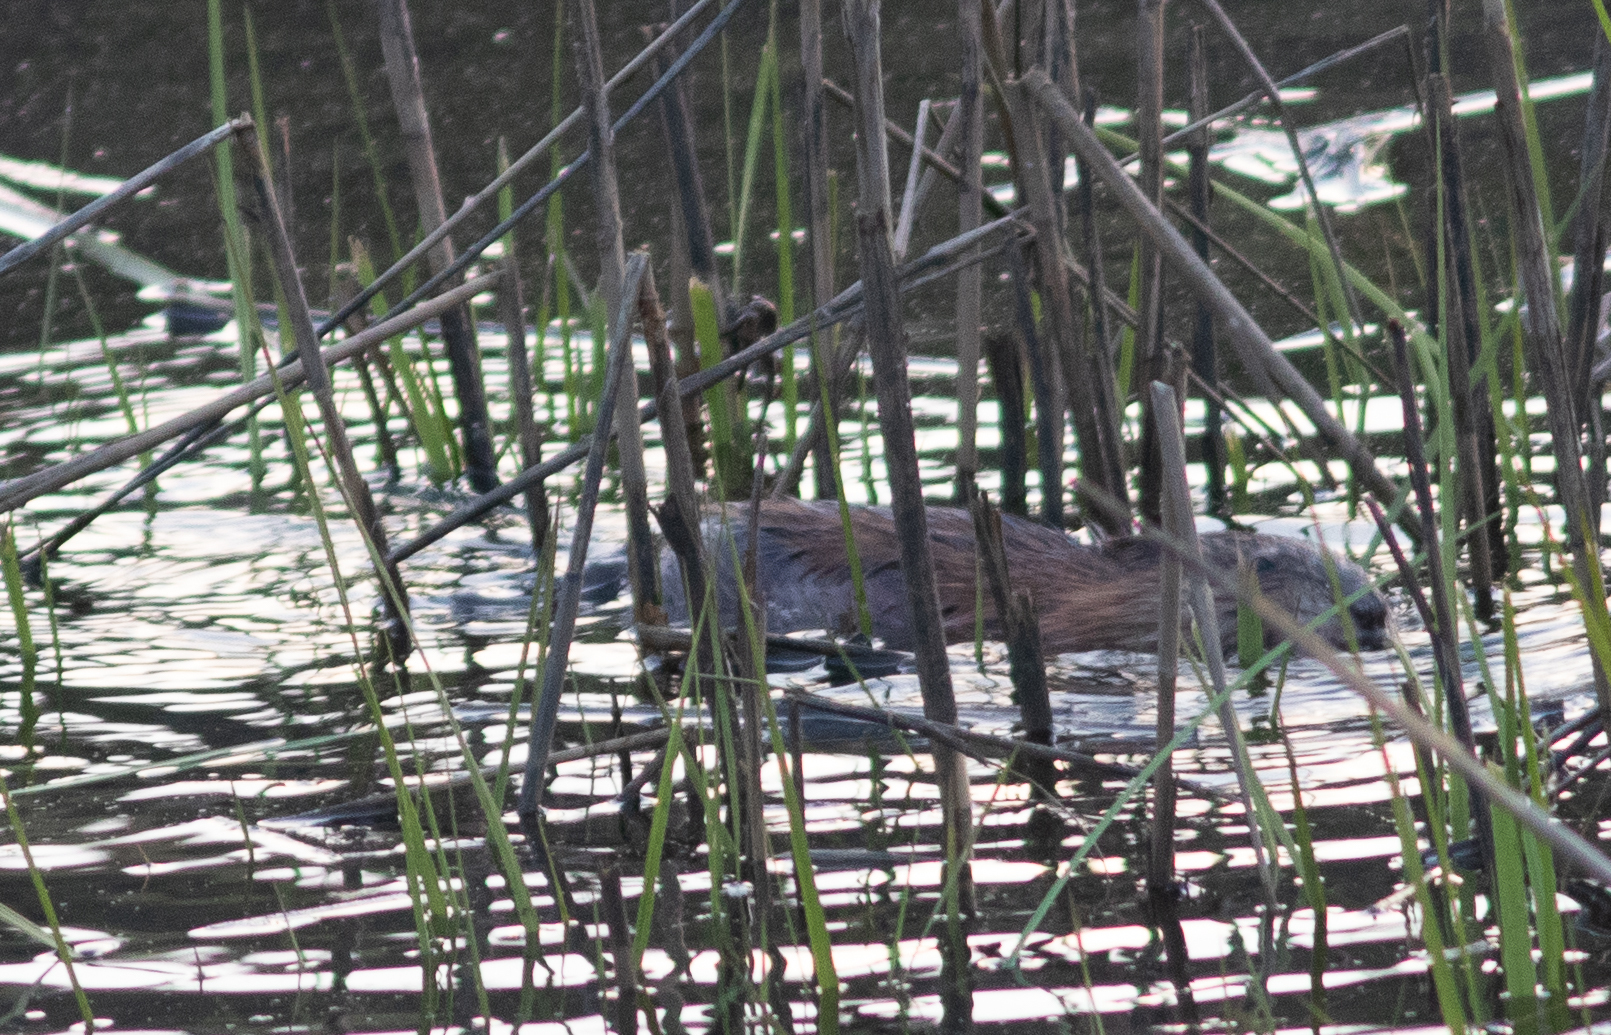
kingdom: Animalia
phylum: Chordata
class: Mammalia
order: Rodentia
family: Cricetidae
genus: Ondatra
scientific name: Ondatra zibethicus
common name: Muskrat
